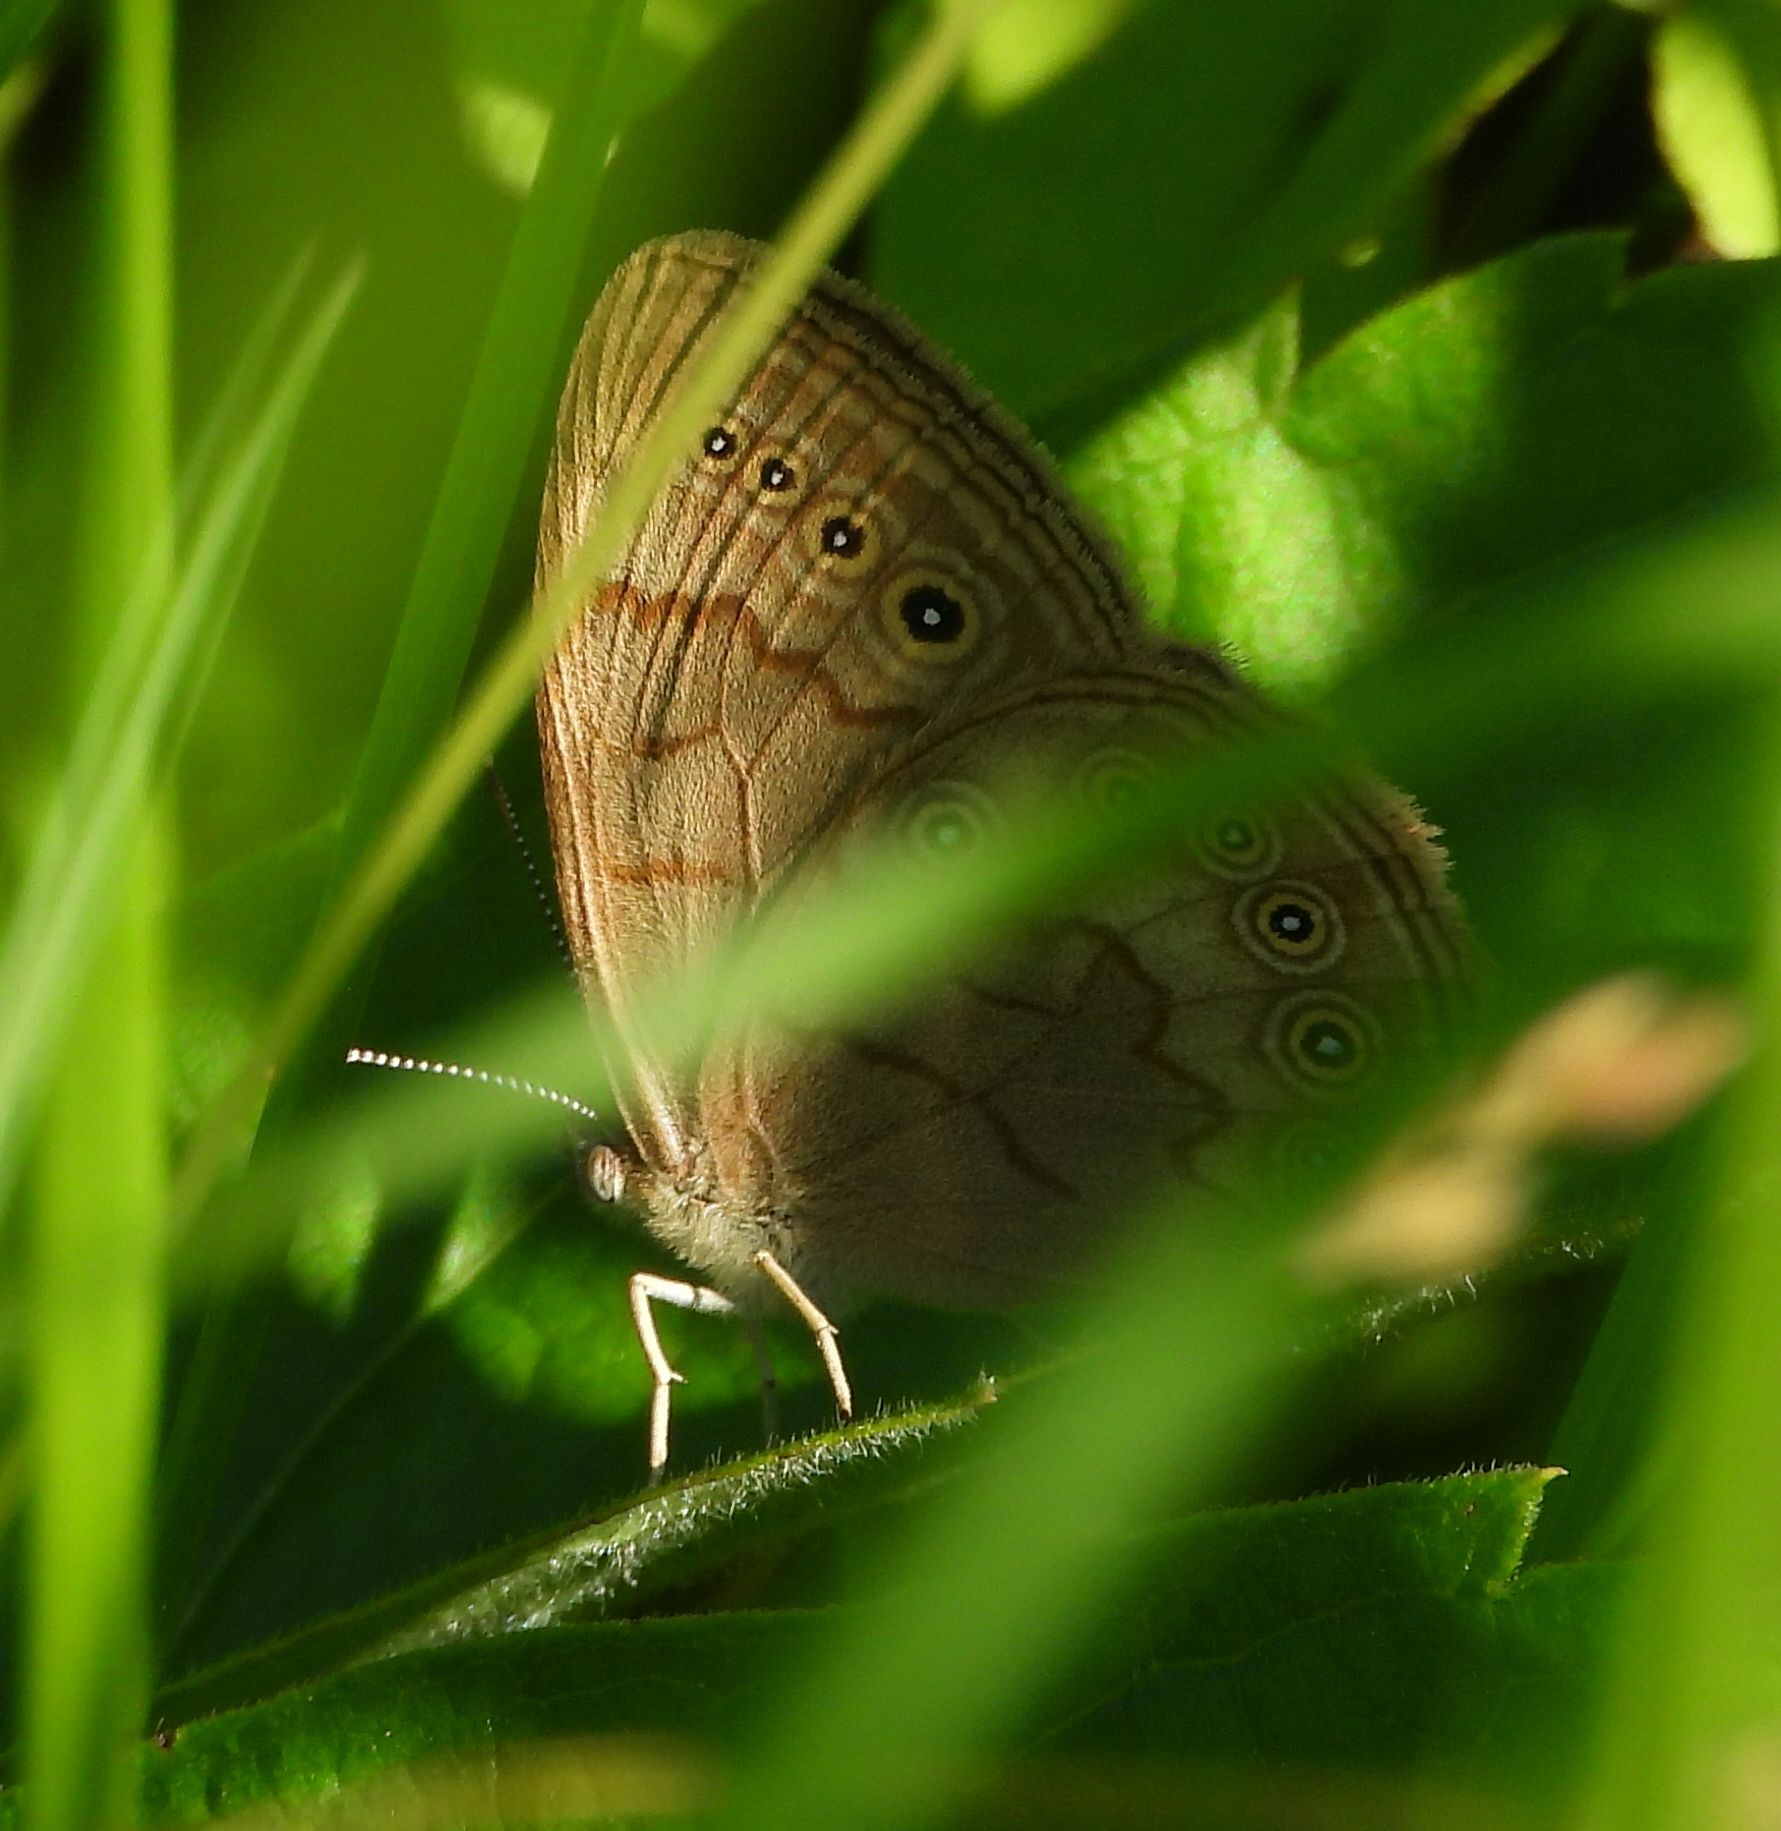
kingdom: Animalia
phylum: Arthropoda
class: Insecta
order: Lepidoptera
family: Nymphalidae
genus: Lethe
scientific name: Lethe eurydice
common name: Eyed brown
